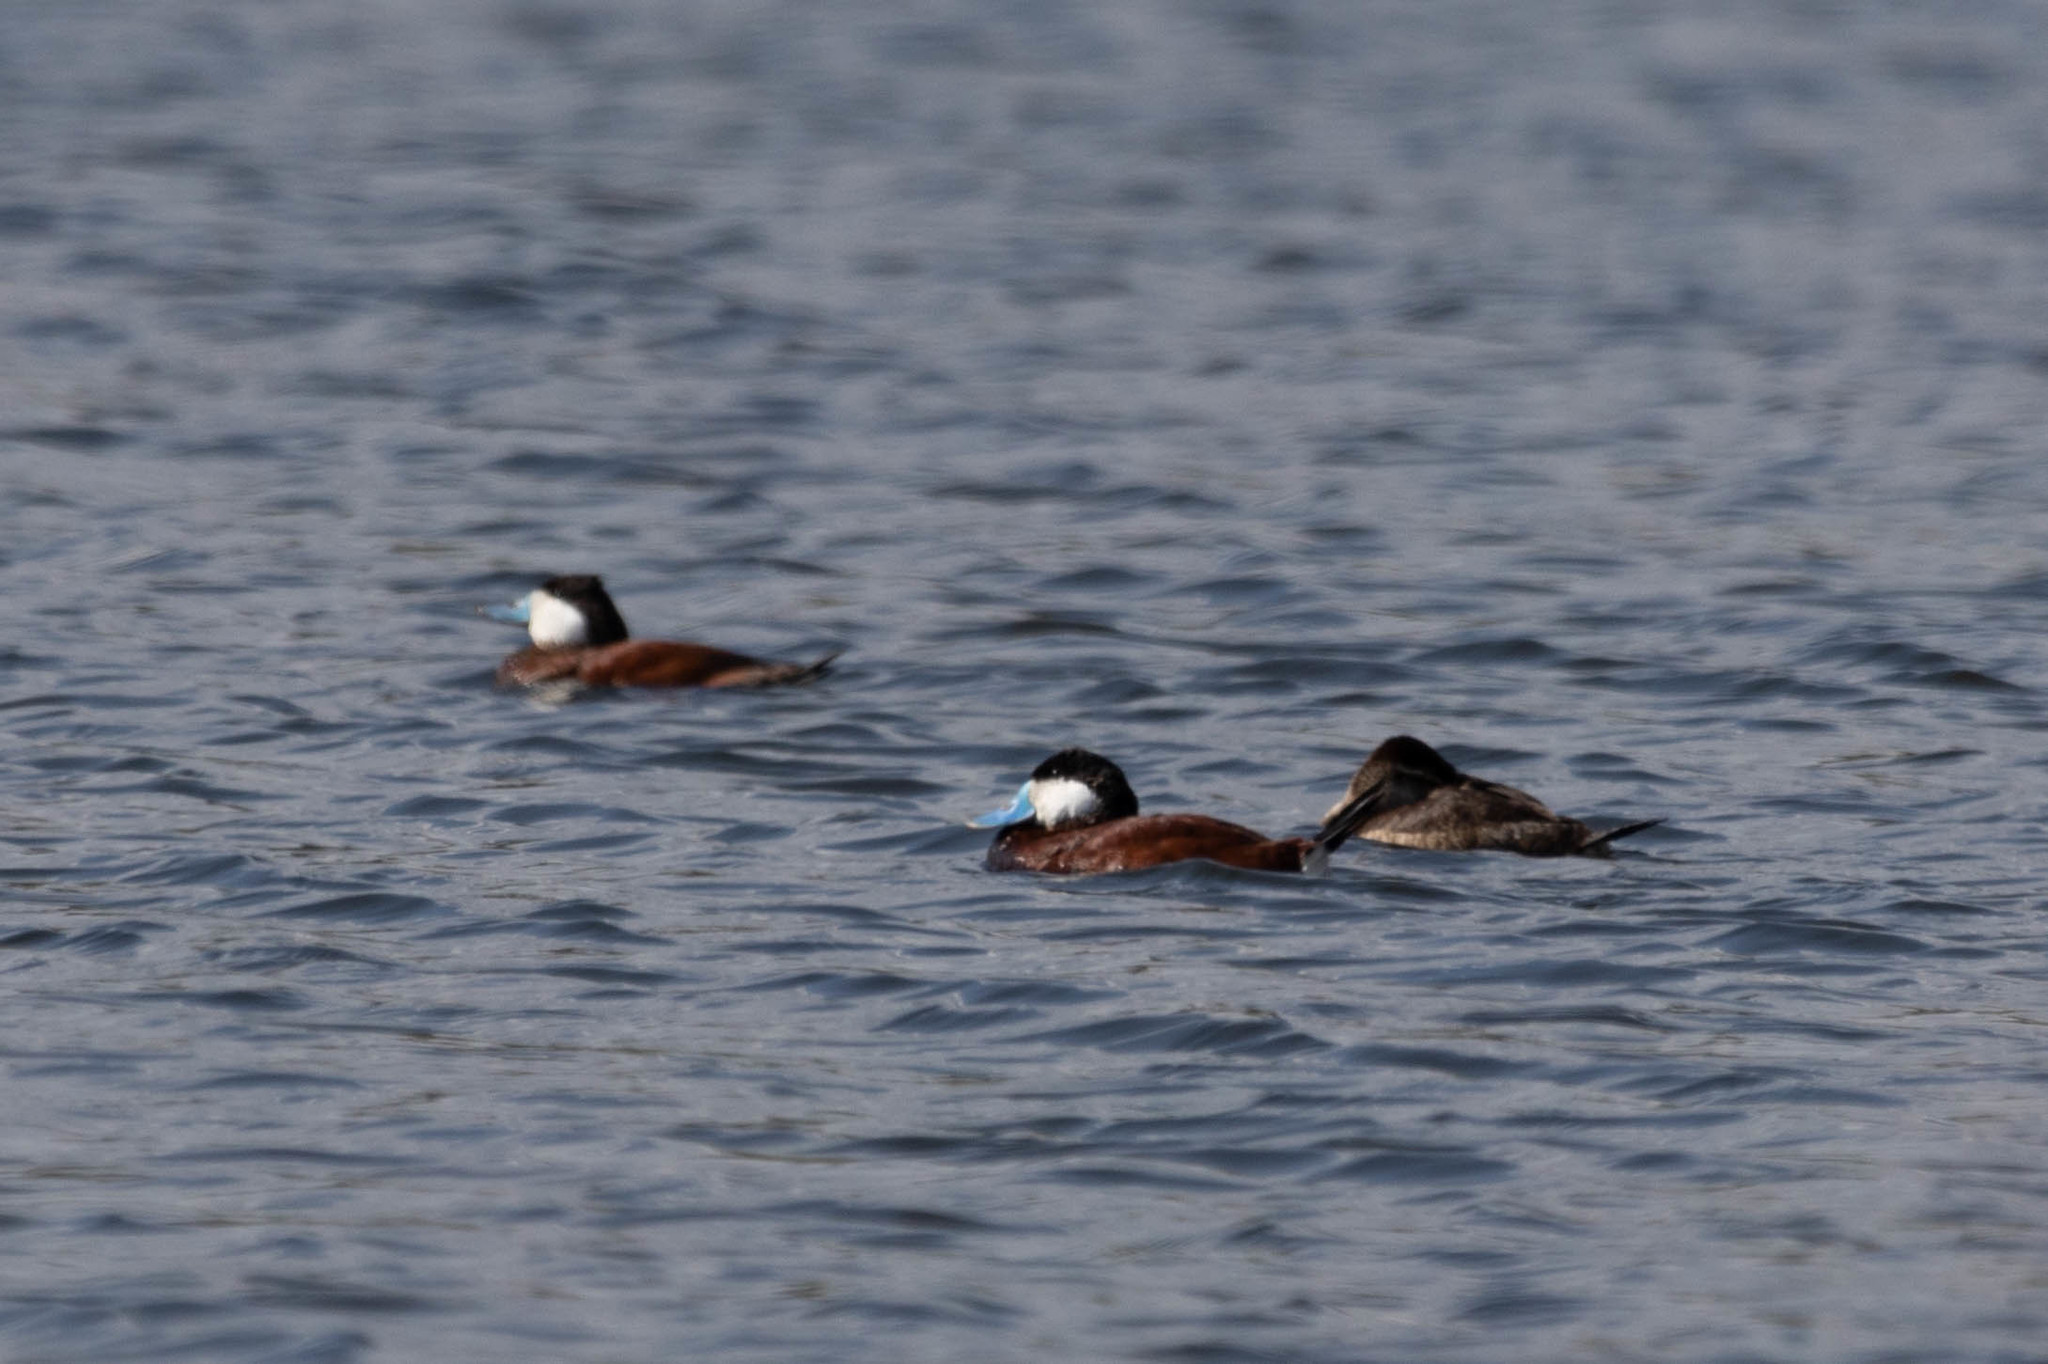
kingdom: Animalia
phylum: Chordata
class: Aves
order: Anseriformes
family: Anatidae
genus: Oxyura
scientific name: Oxyura jamaicensis
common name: Ruddy duck
